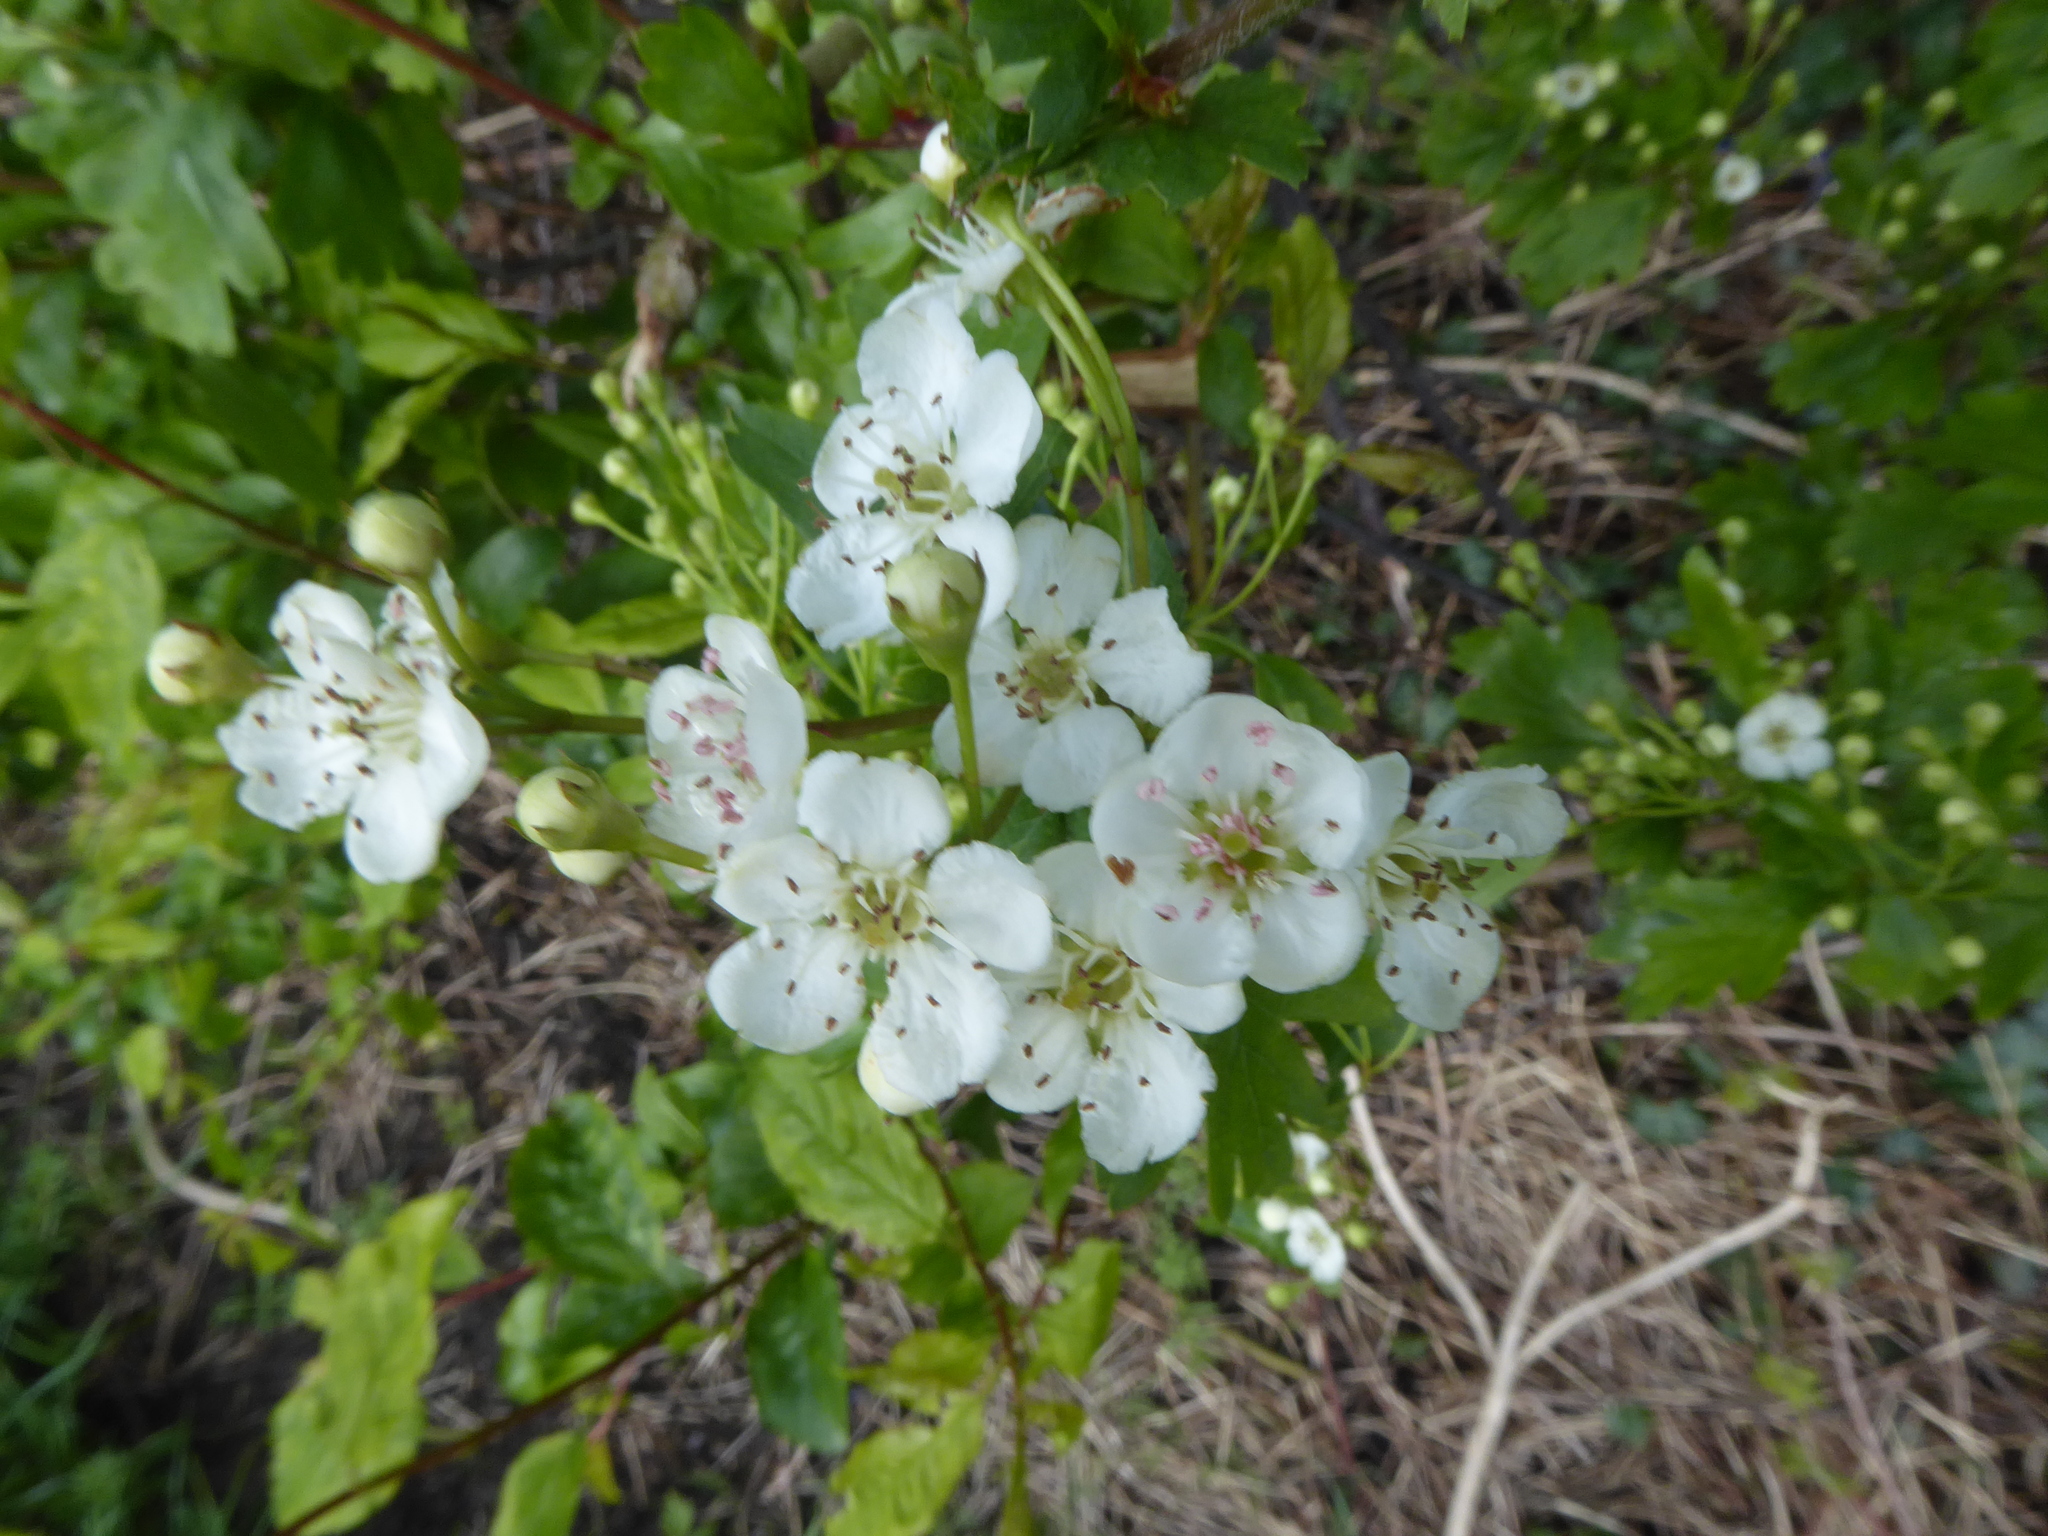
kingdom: Plantae
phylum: Tracheophyta
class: Magnoliopsida
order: Rosales
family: Rosaceae
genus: Crataegus
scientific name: Crataegus monogyna
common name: Hawthorn
